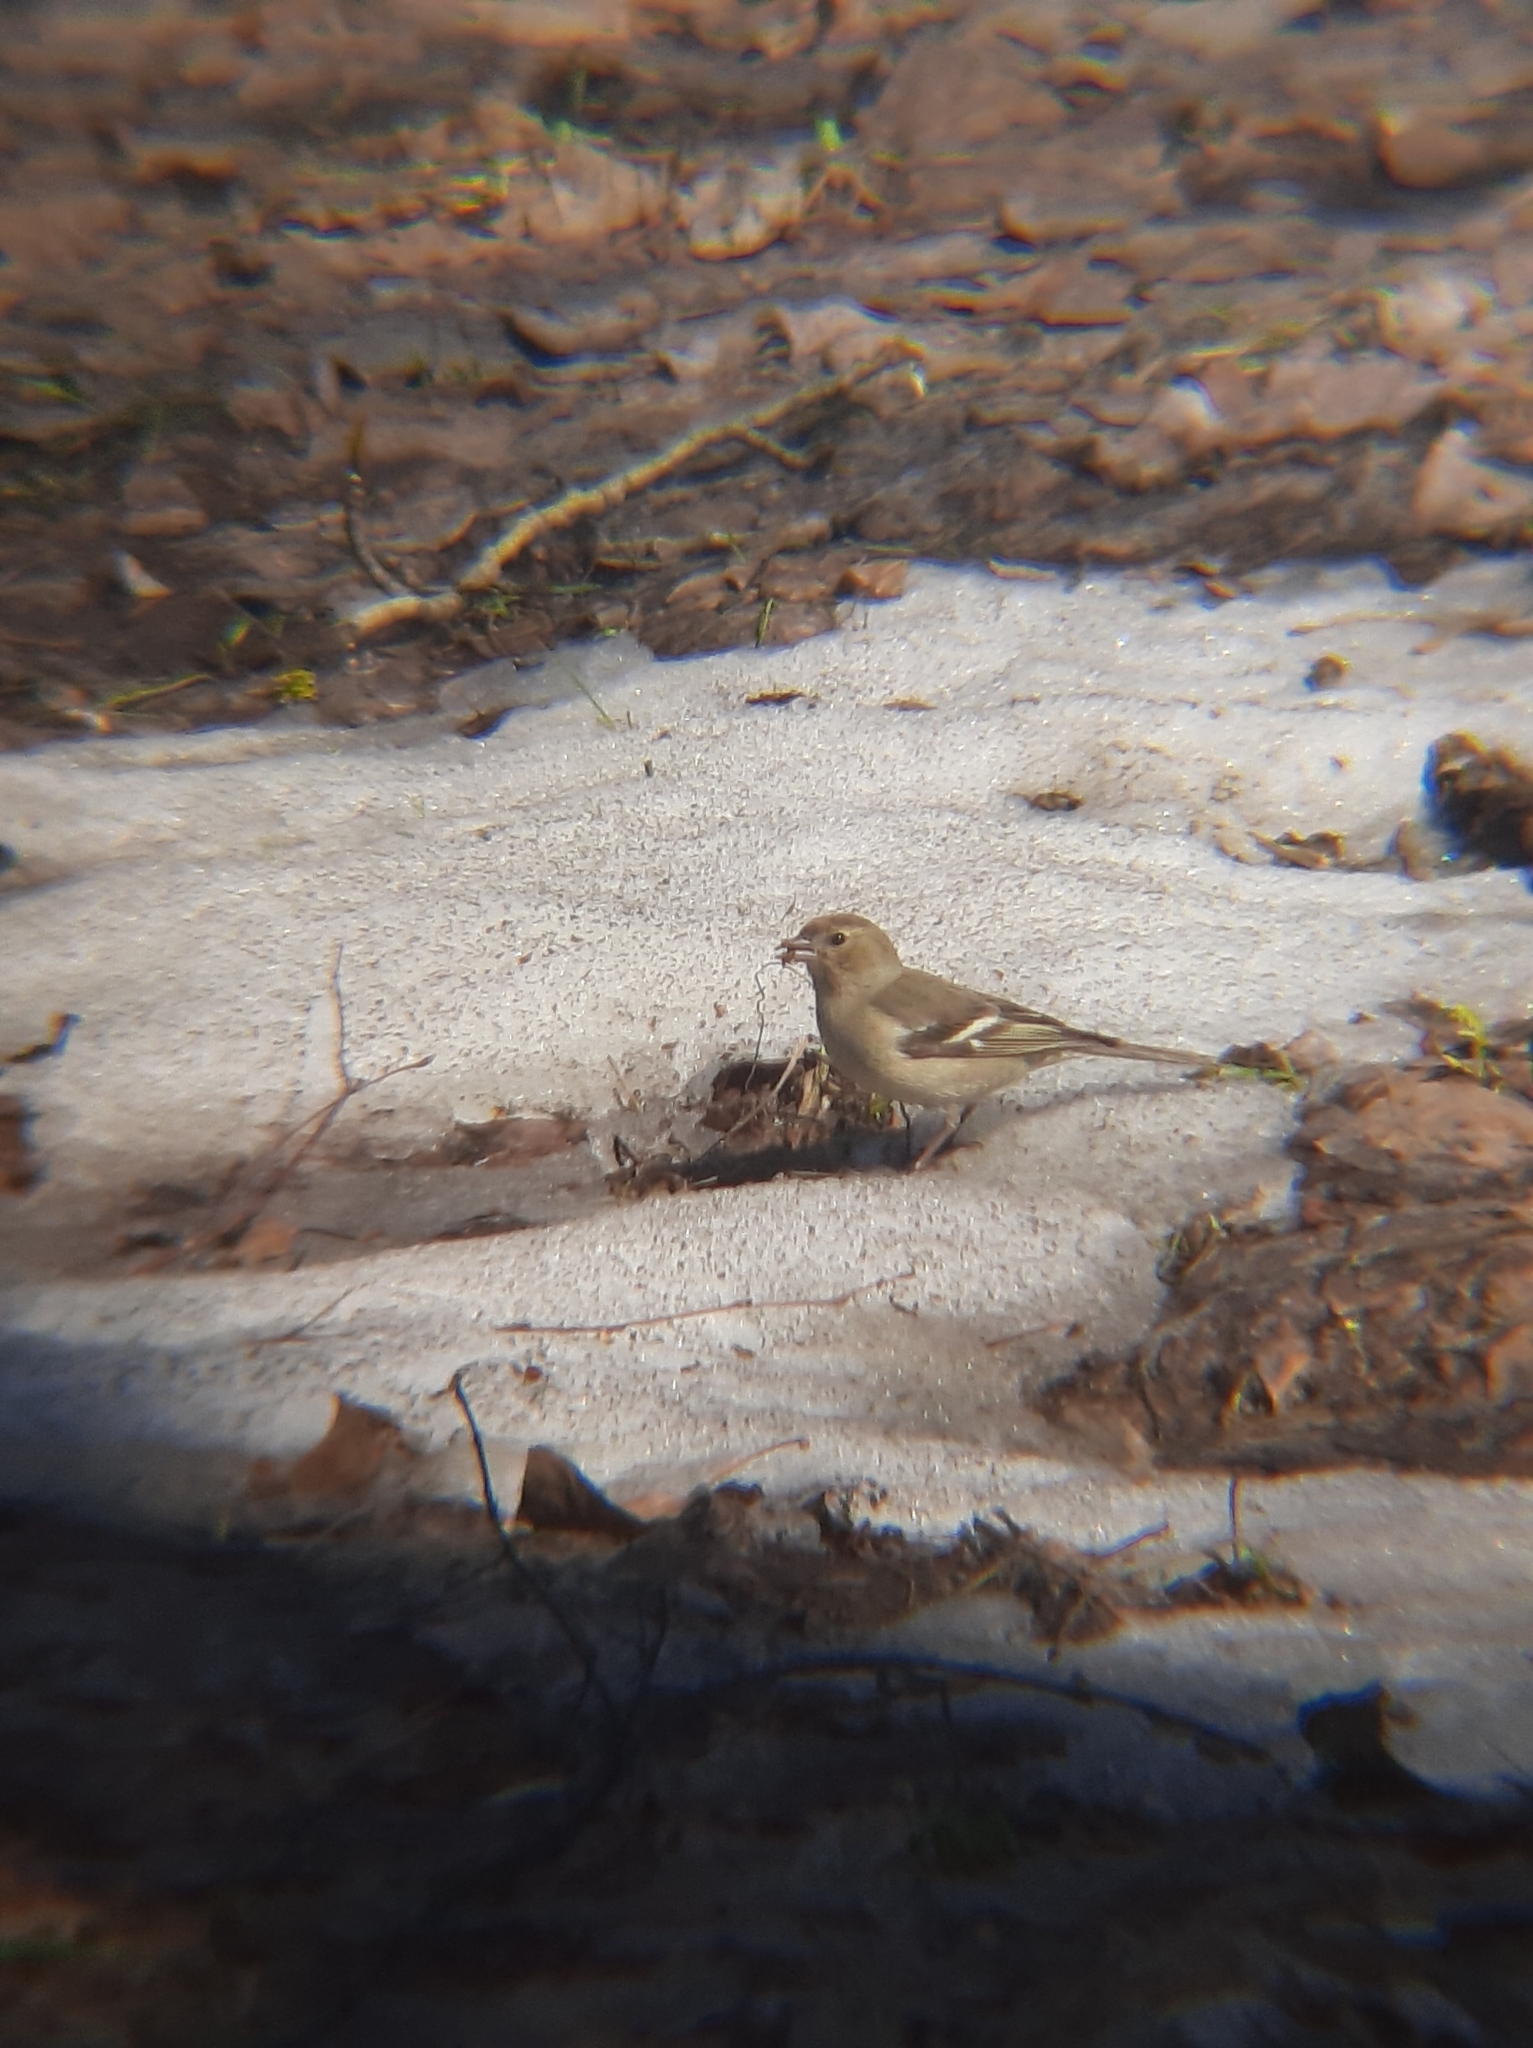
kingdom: Animalia
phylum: Chordata
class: Aves
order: Passeriformes
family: Fringillidae
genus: Fringilla
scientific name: Fringilla coelebs
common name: Common chaffinch
